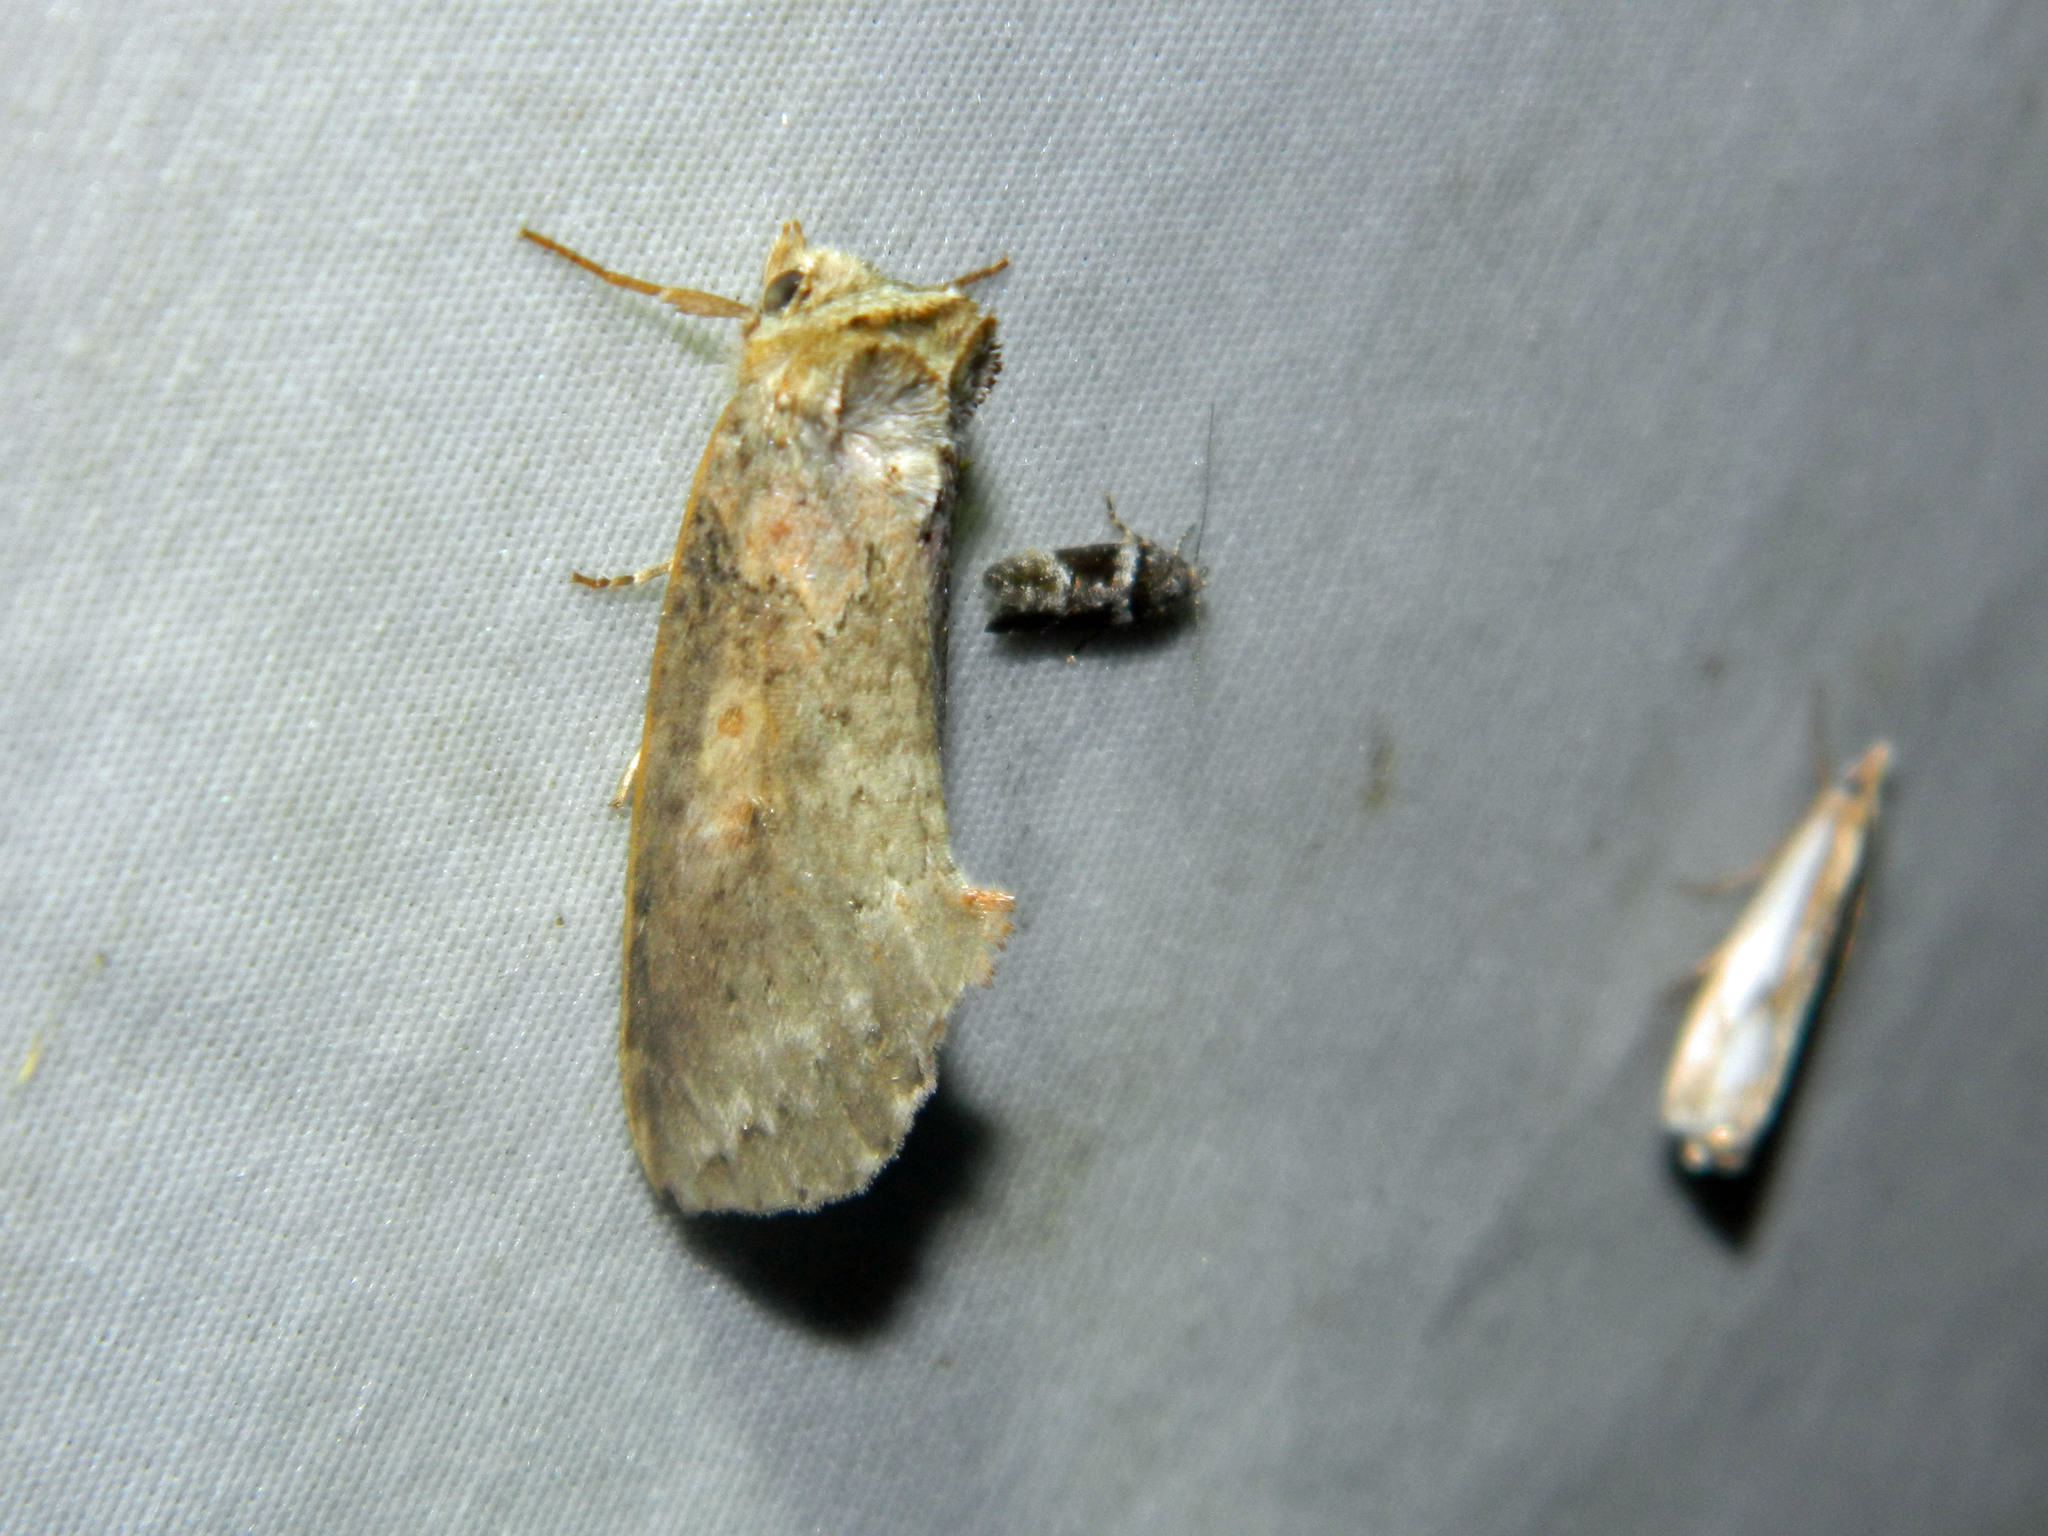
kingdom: Animalia
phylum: Arthropoda
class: Insecta
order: Lepidoptera
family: Drepanidae
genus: Pseudothyatira
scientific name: Pseudothyatira cymatophoroides
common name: Tufted thyatirid moth
